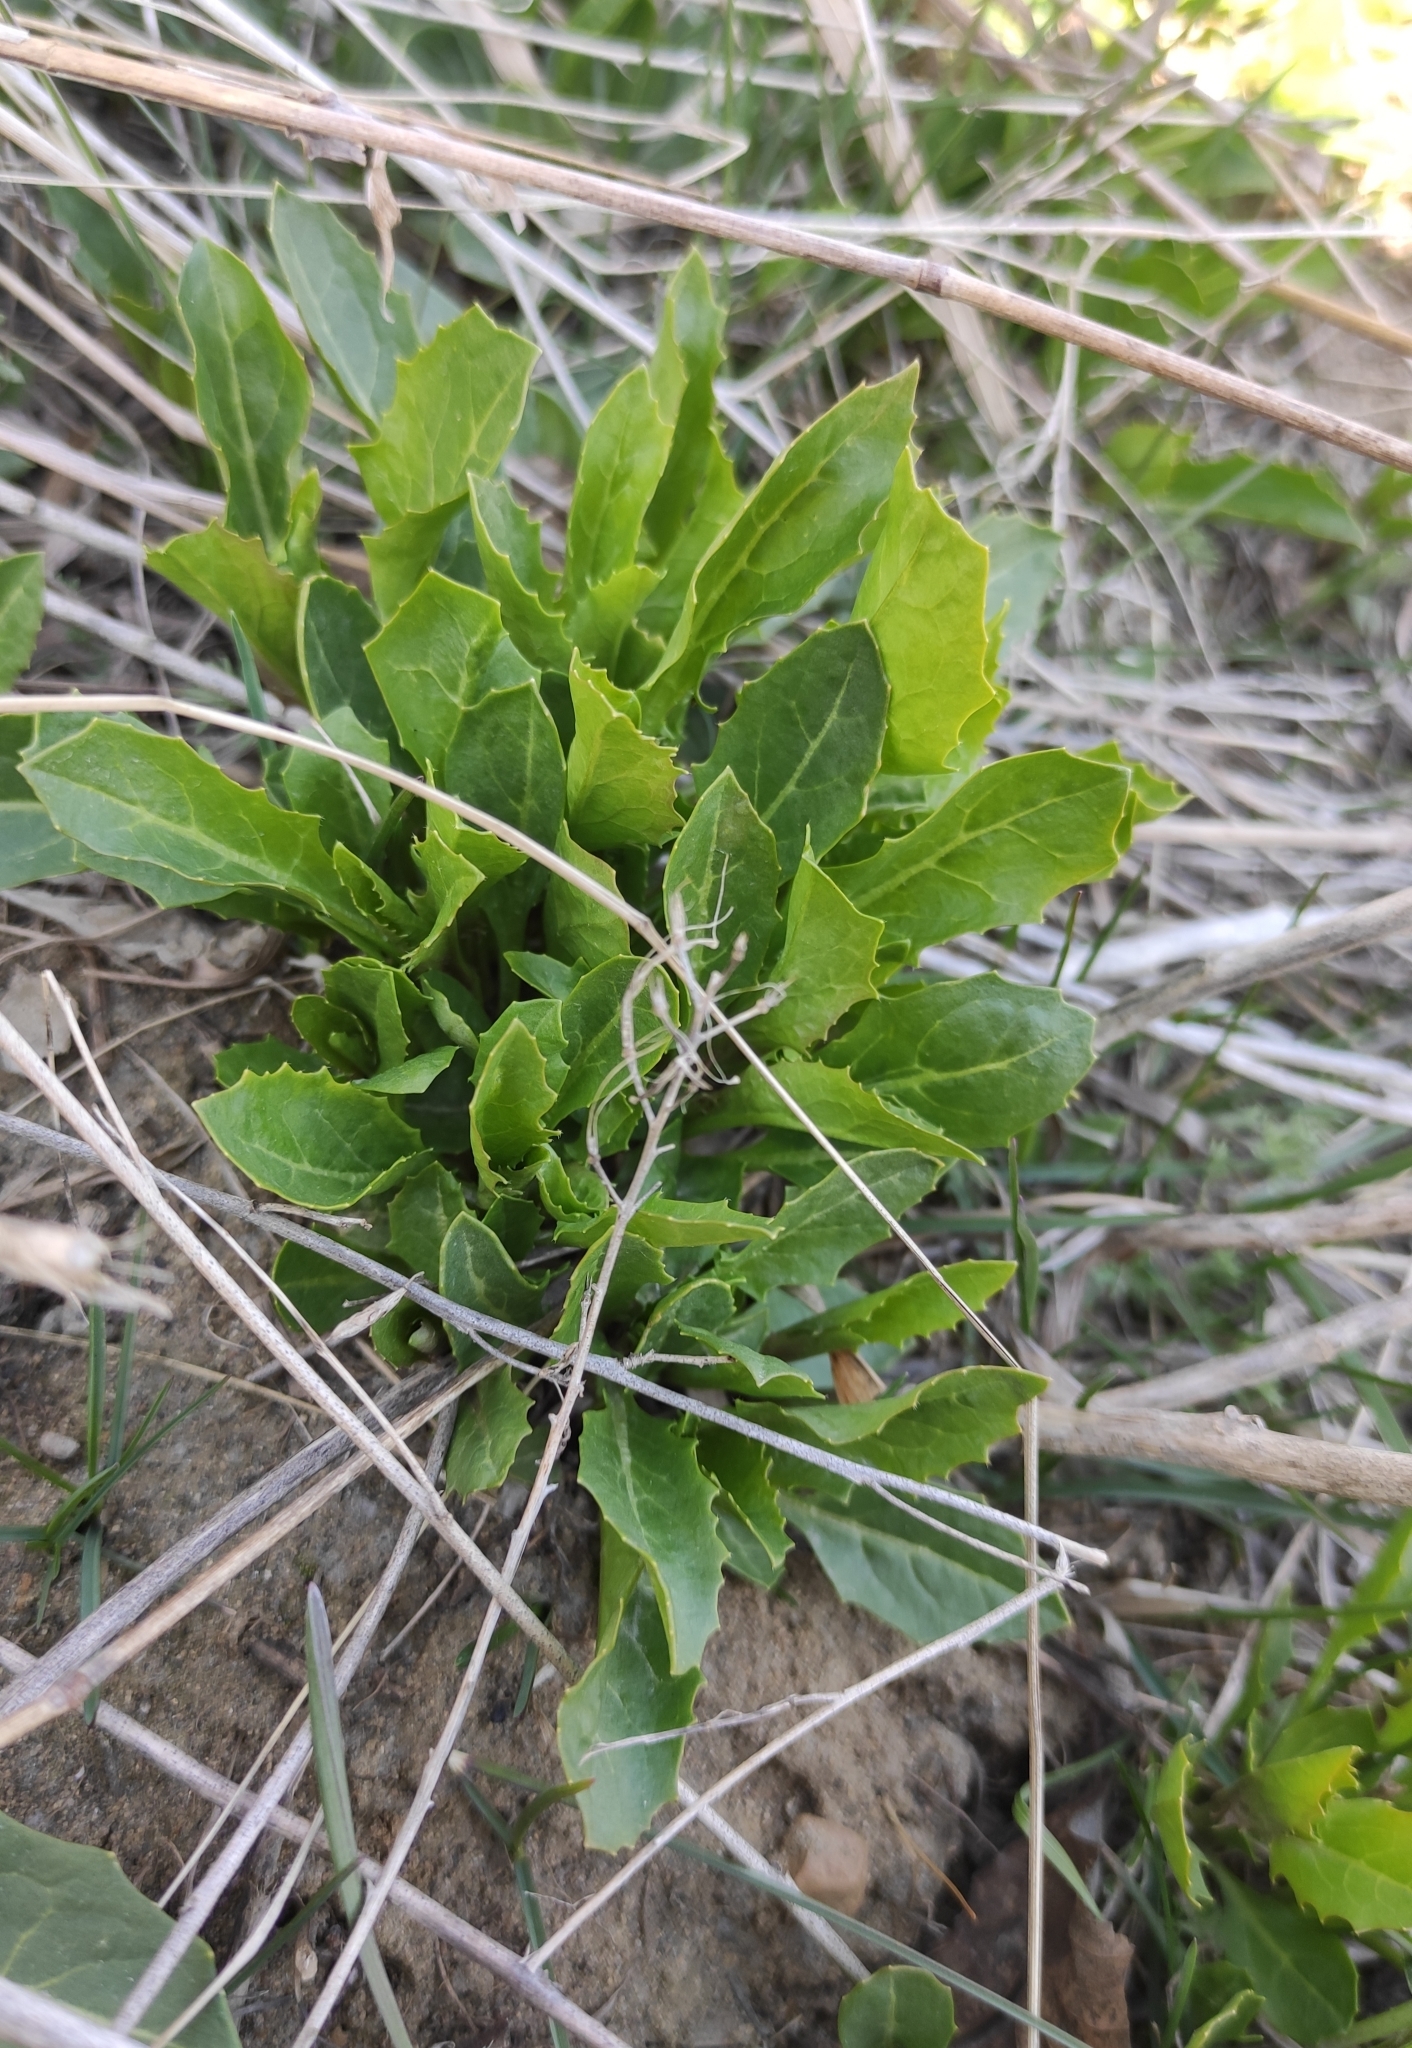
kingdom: Plantae
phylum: Tracheophyta
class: Magnoliopsida
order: Brassicales
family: Brassicaceae
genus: Sisymbrium
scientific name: Sisymbrium volgense
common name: Russian mustard
